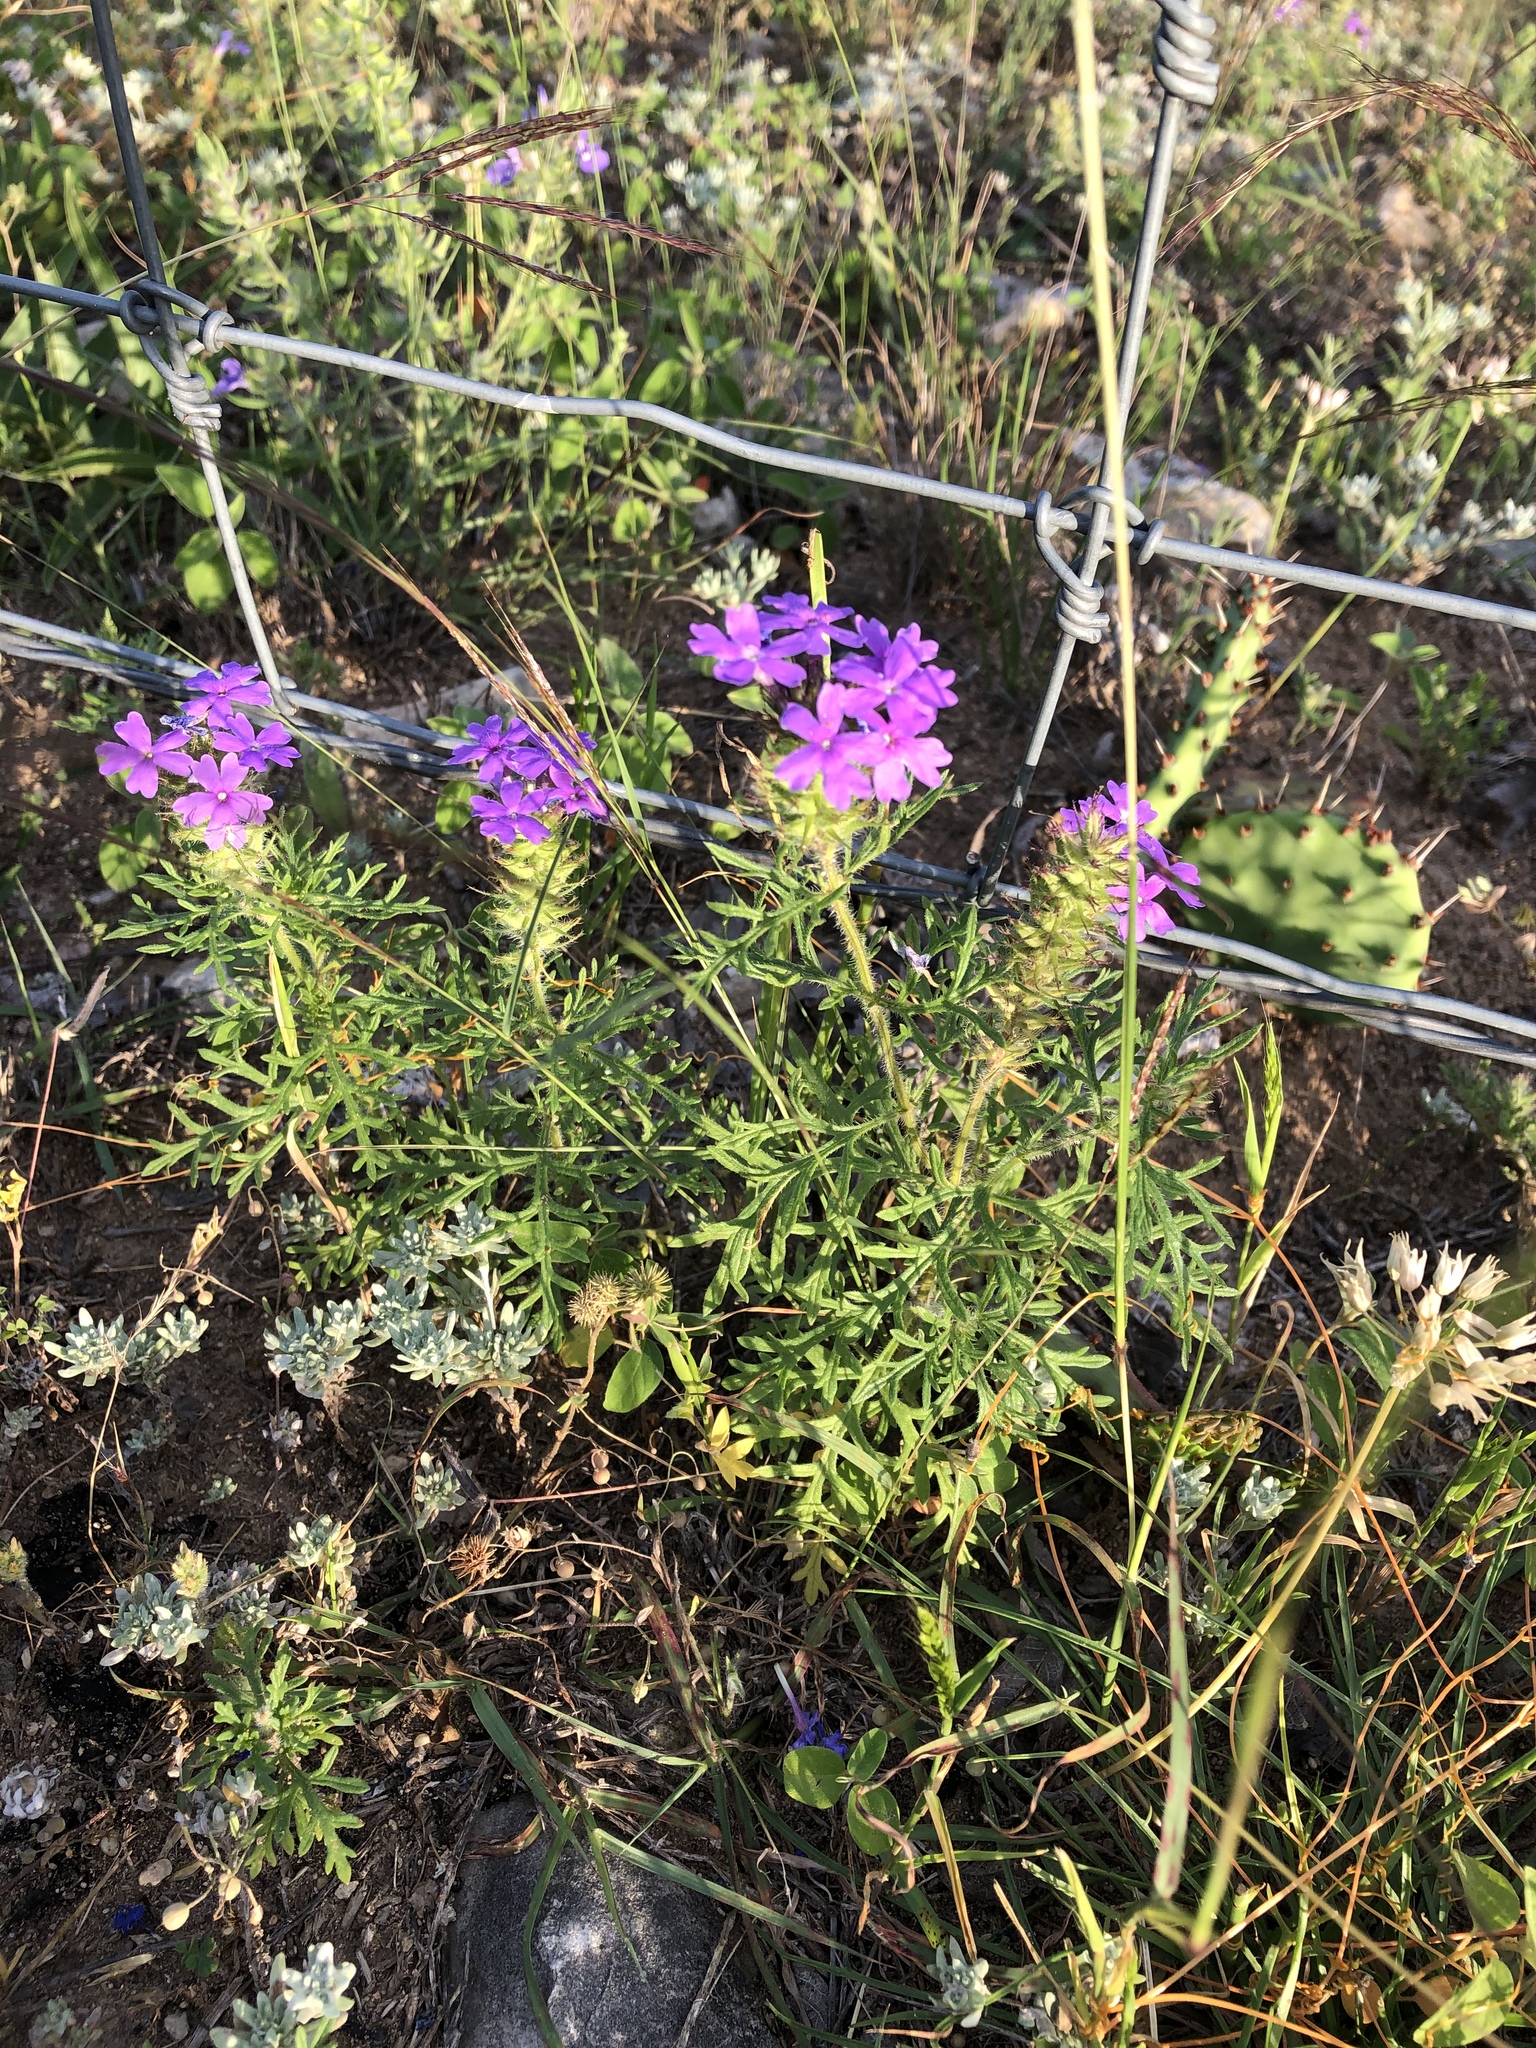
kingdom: Plantae
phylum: Tracheophyta
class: Magnoliopsida
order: Lamiales
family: Verbenaceae
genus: Verbena
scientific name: Verbena bipinnatifida
